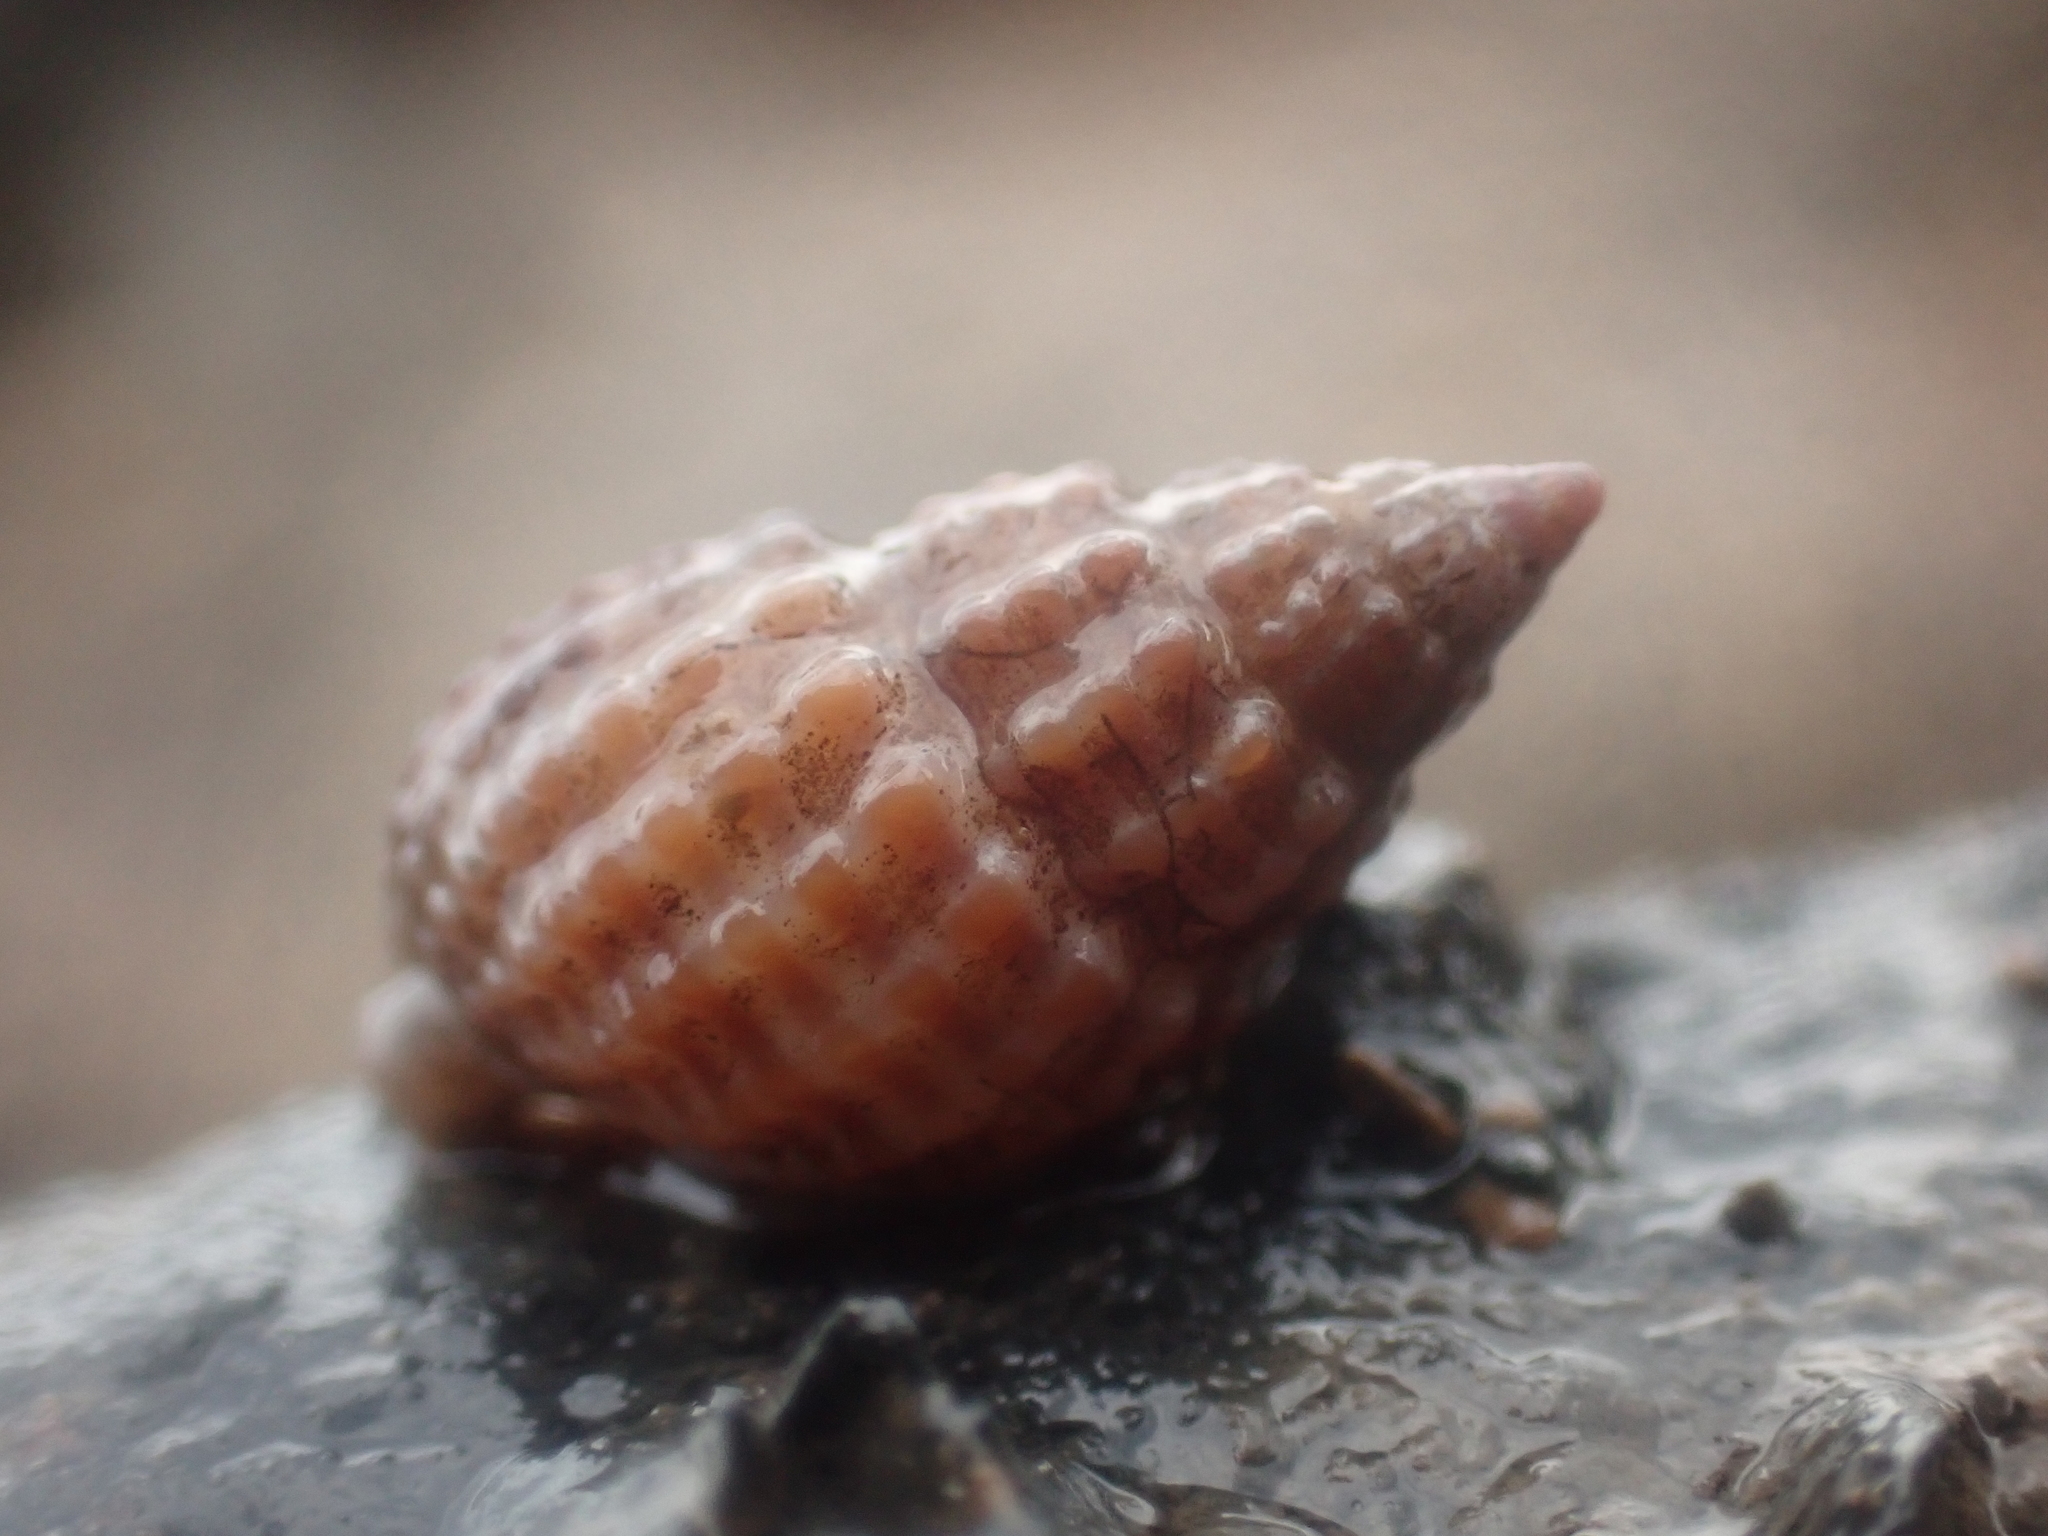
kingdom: Animalia
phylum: Mollusca
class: Gastropoda
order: Neogastropoda
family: Nassariidae
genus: Ilyanassa
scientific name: Ilyanassa trivittata
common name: Three-line mudsnail
